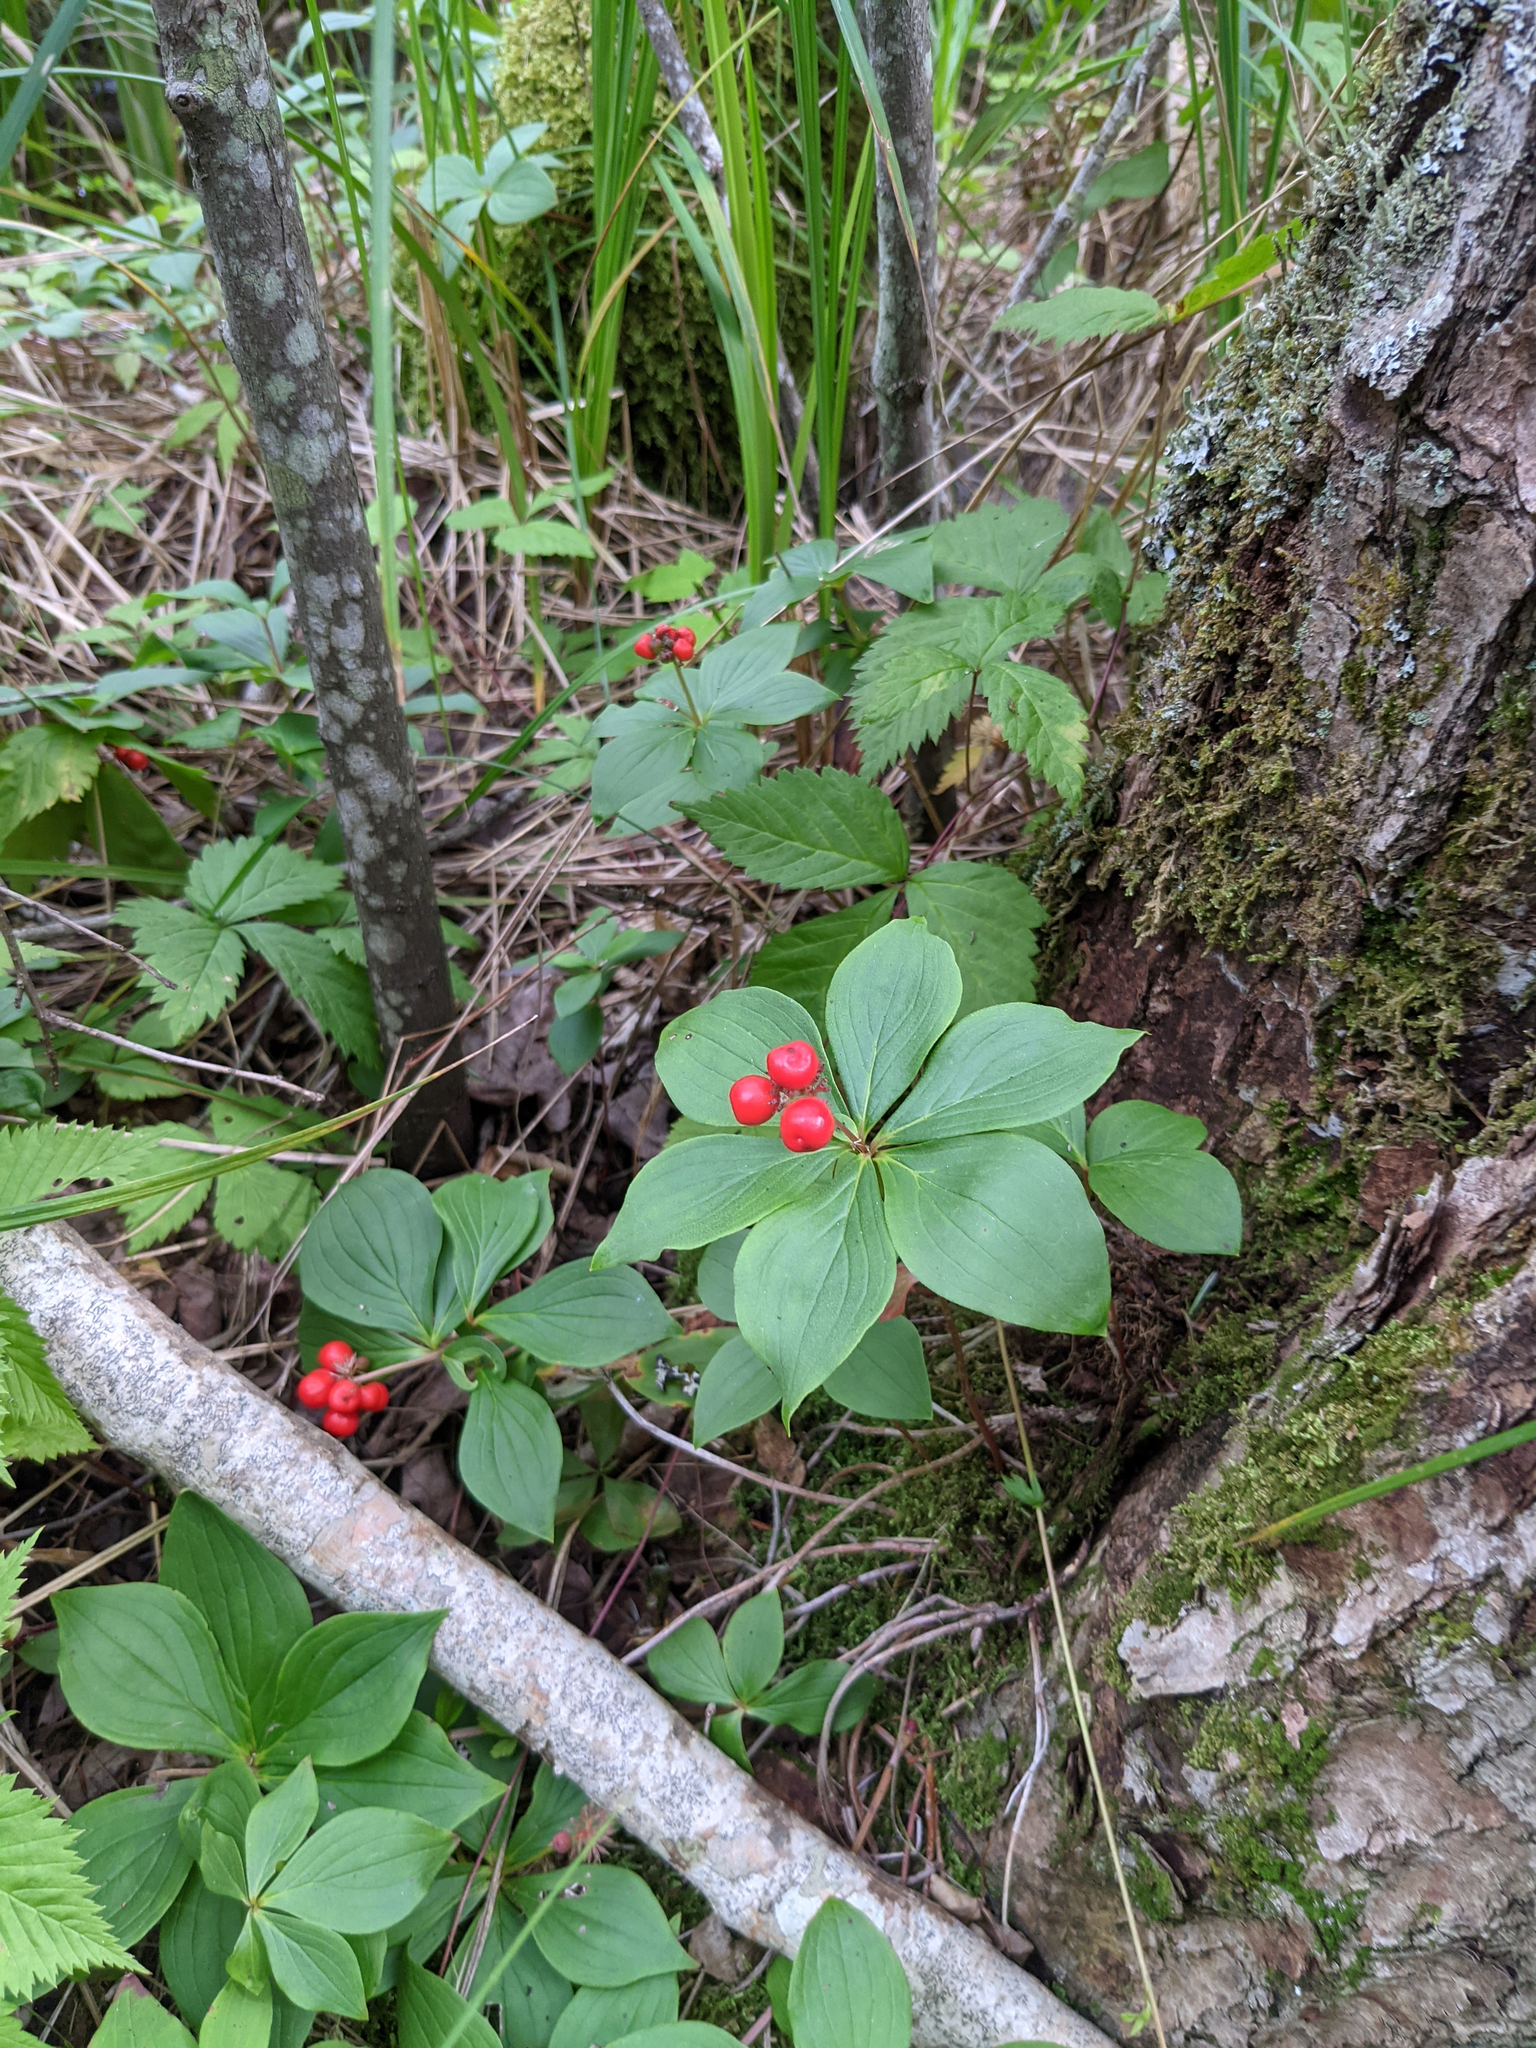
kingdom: Plantae
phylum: Tracheophyta
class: Magnoliopsida
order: Cornales
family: Cornaceae
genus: Cornus
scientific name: Cornus canadensis
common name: Creeping dogwood
